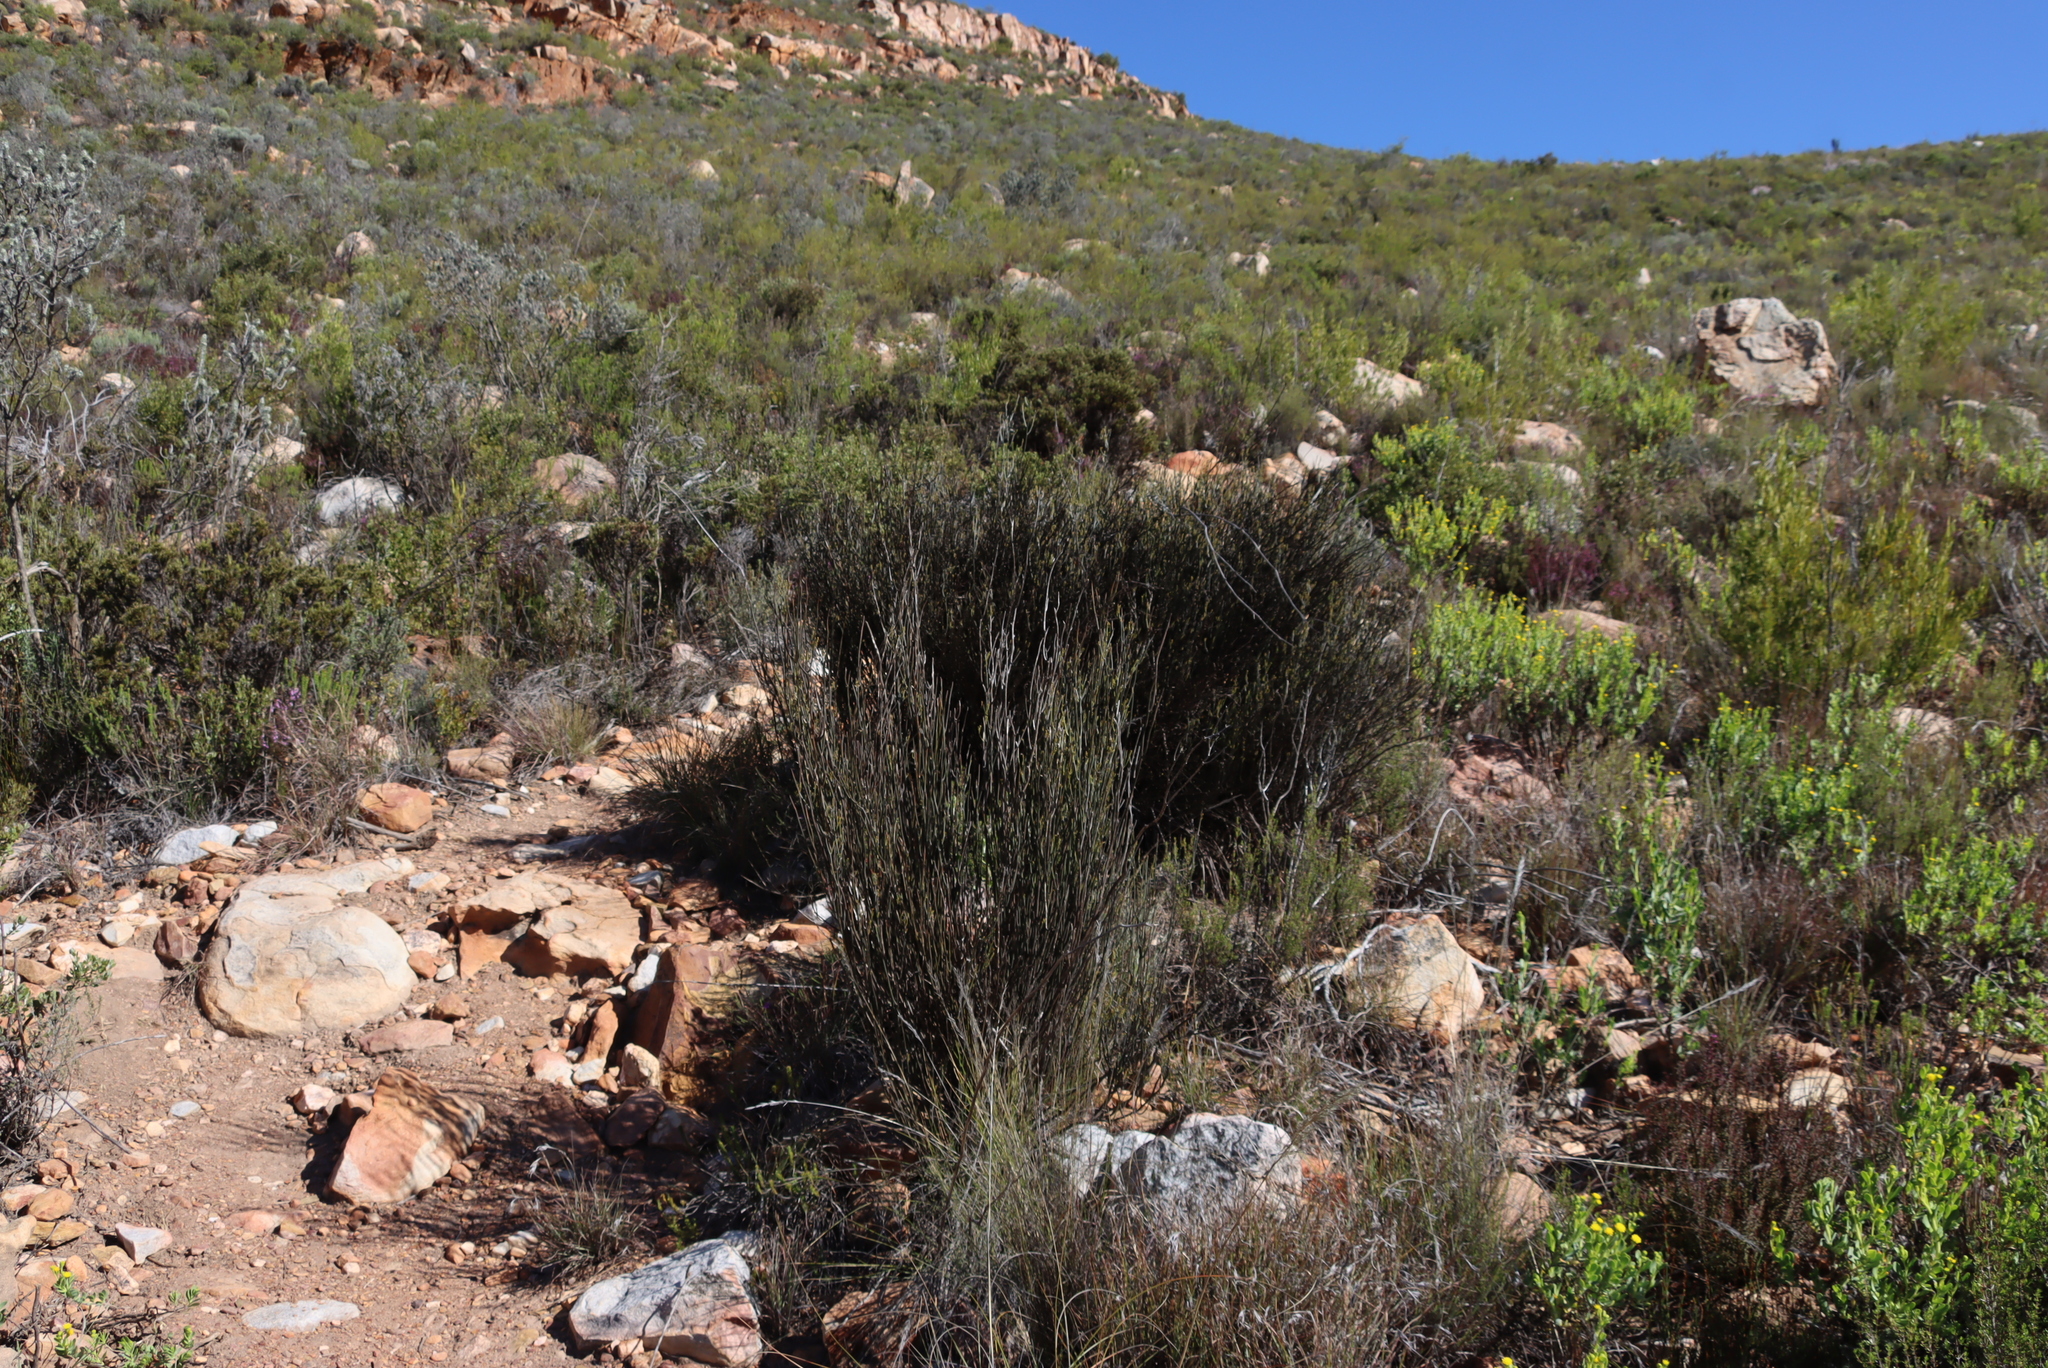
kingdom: Plantae
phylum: Tracheophyta
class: Magnoliopsida
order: Solanales
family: Montiniaceae
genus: Montinia
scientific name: Montinia caryophyllacea
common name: Wild clove-bush
